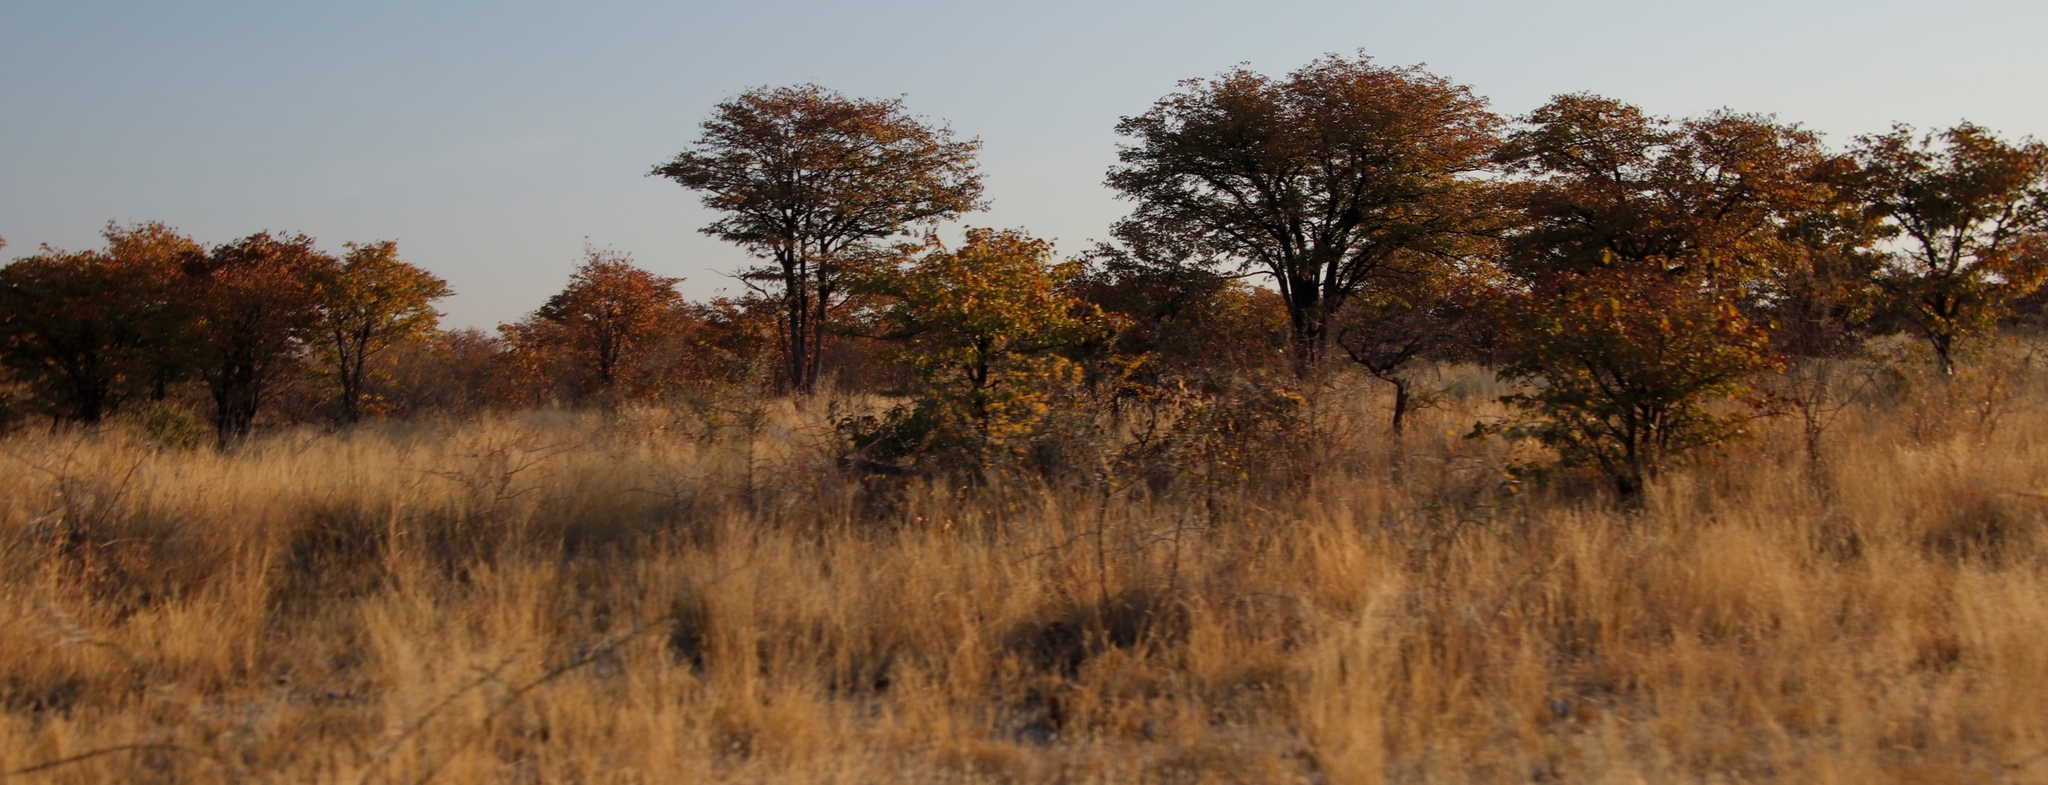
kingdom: Plantae
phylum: Tracheophyta
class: Magnoliopsida
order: Fabales
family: Fabaceae
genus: Colophospermum
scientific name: Colophospermum mopane
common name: Mopane
